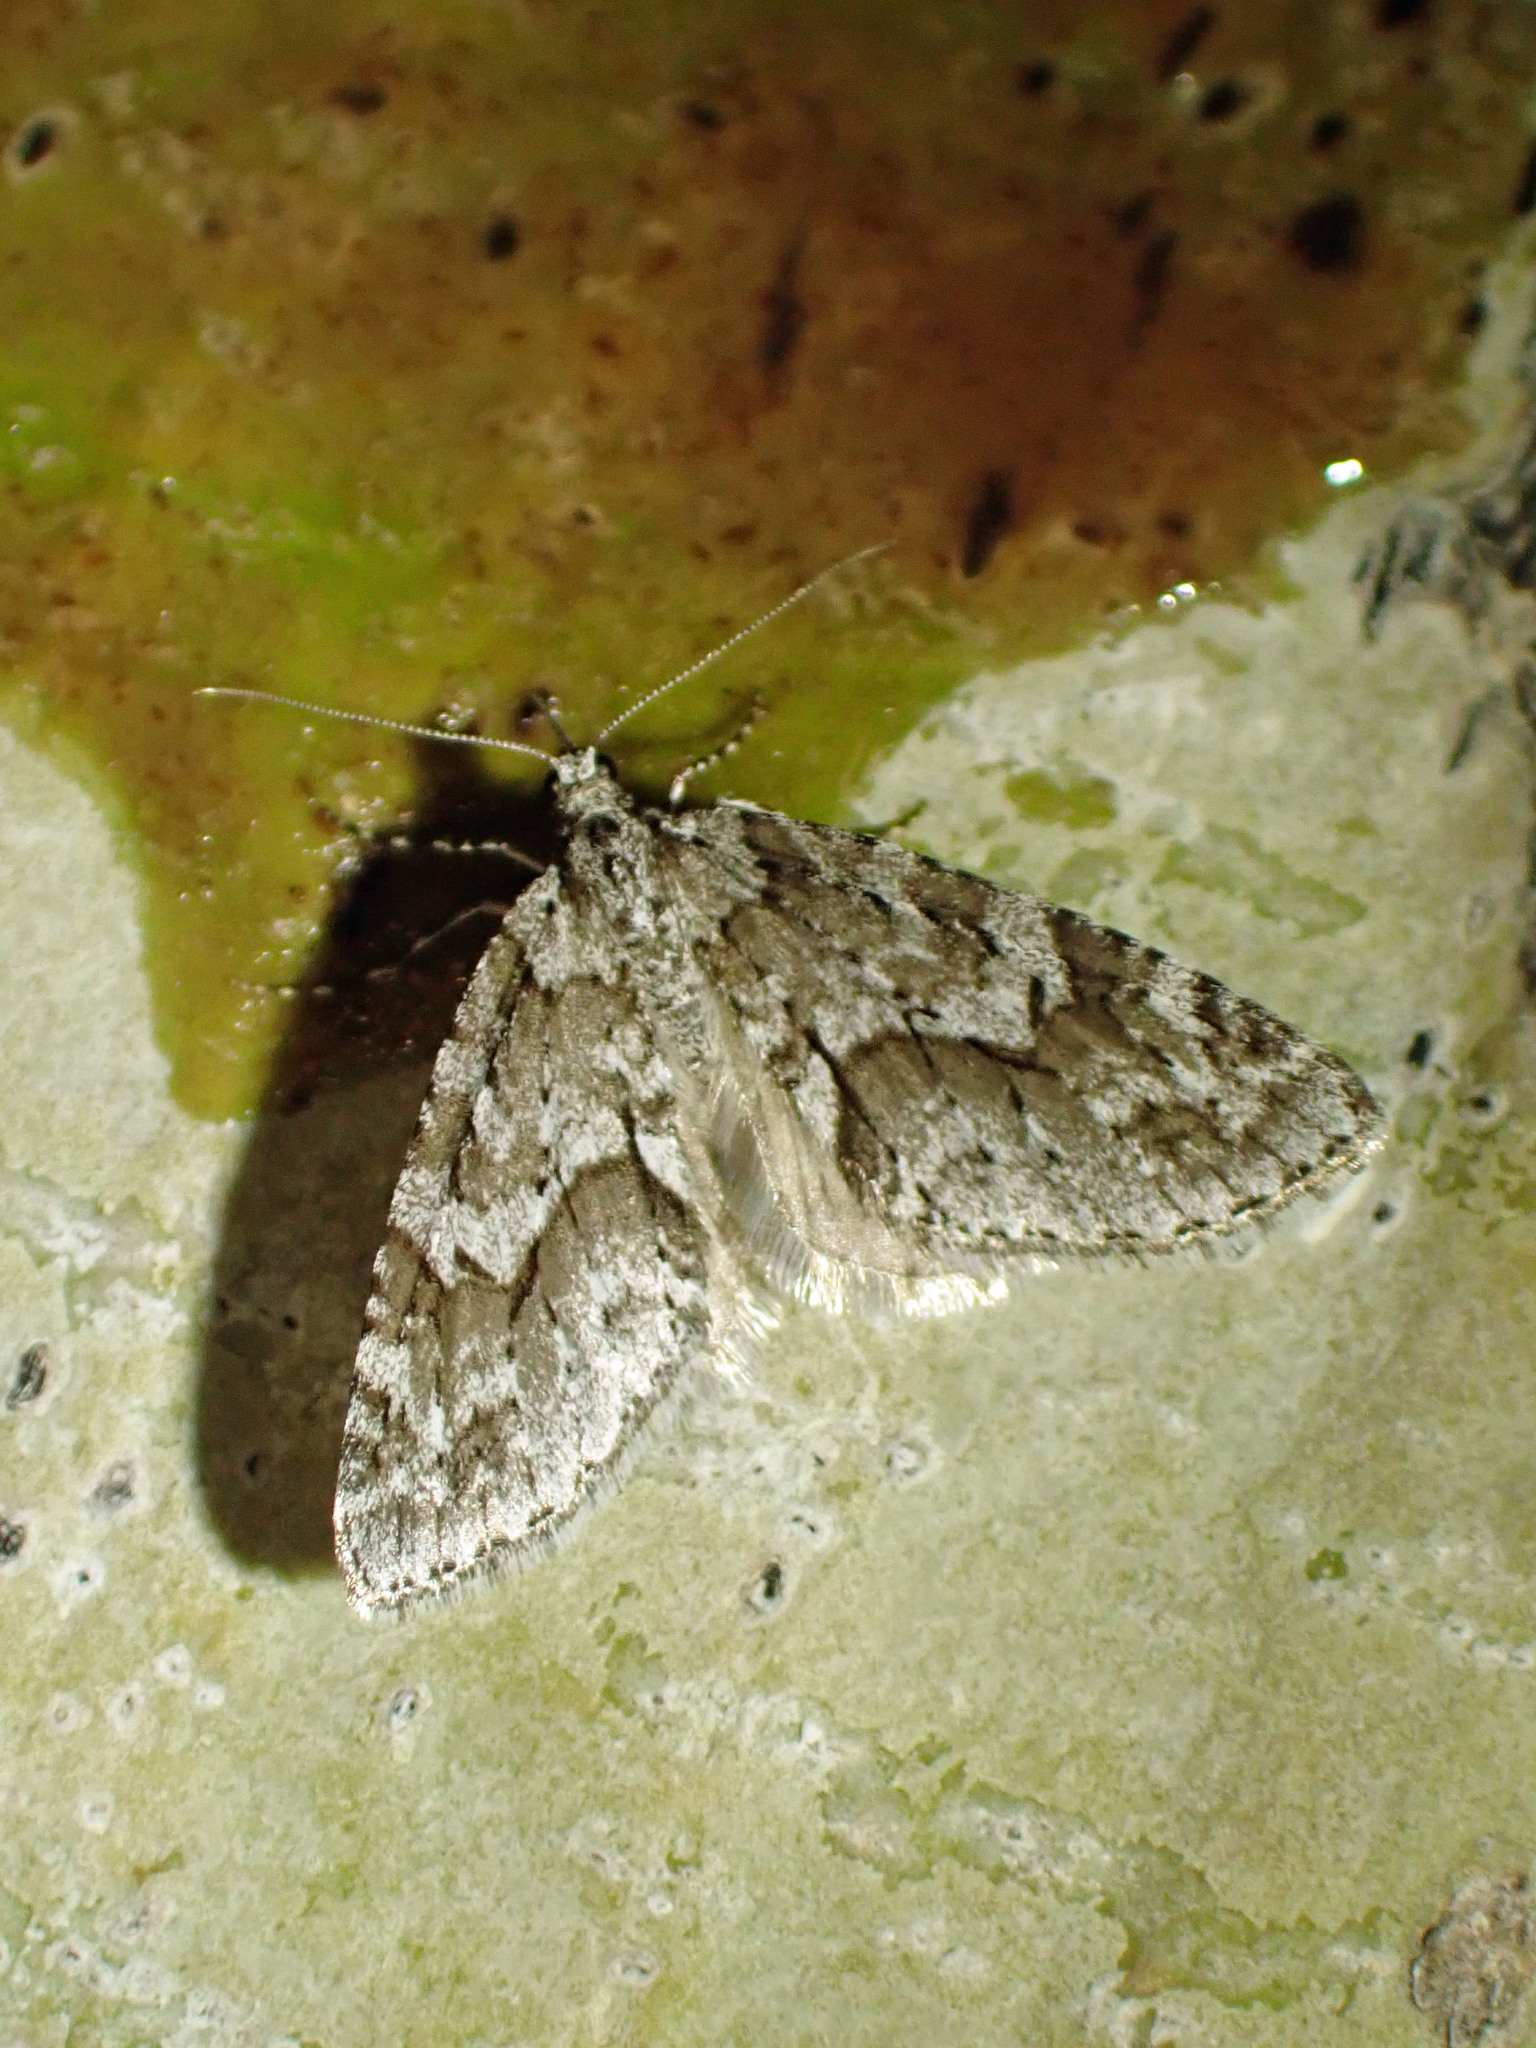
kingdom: Animalia
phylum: Arthropoda
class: Insecta
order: Lepidoptera
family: Geometridae
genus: Cladara
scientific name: Cladara limitaria
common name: Mottled gray carpet
